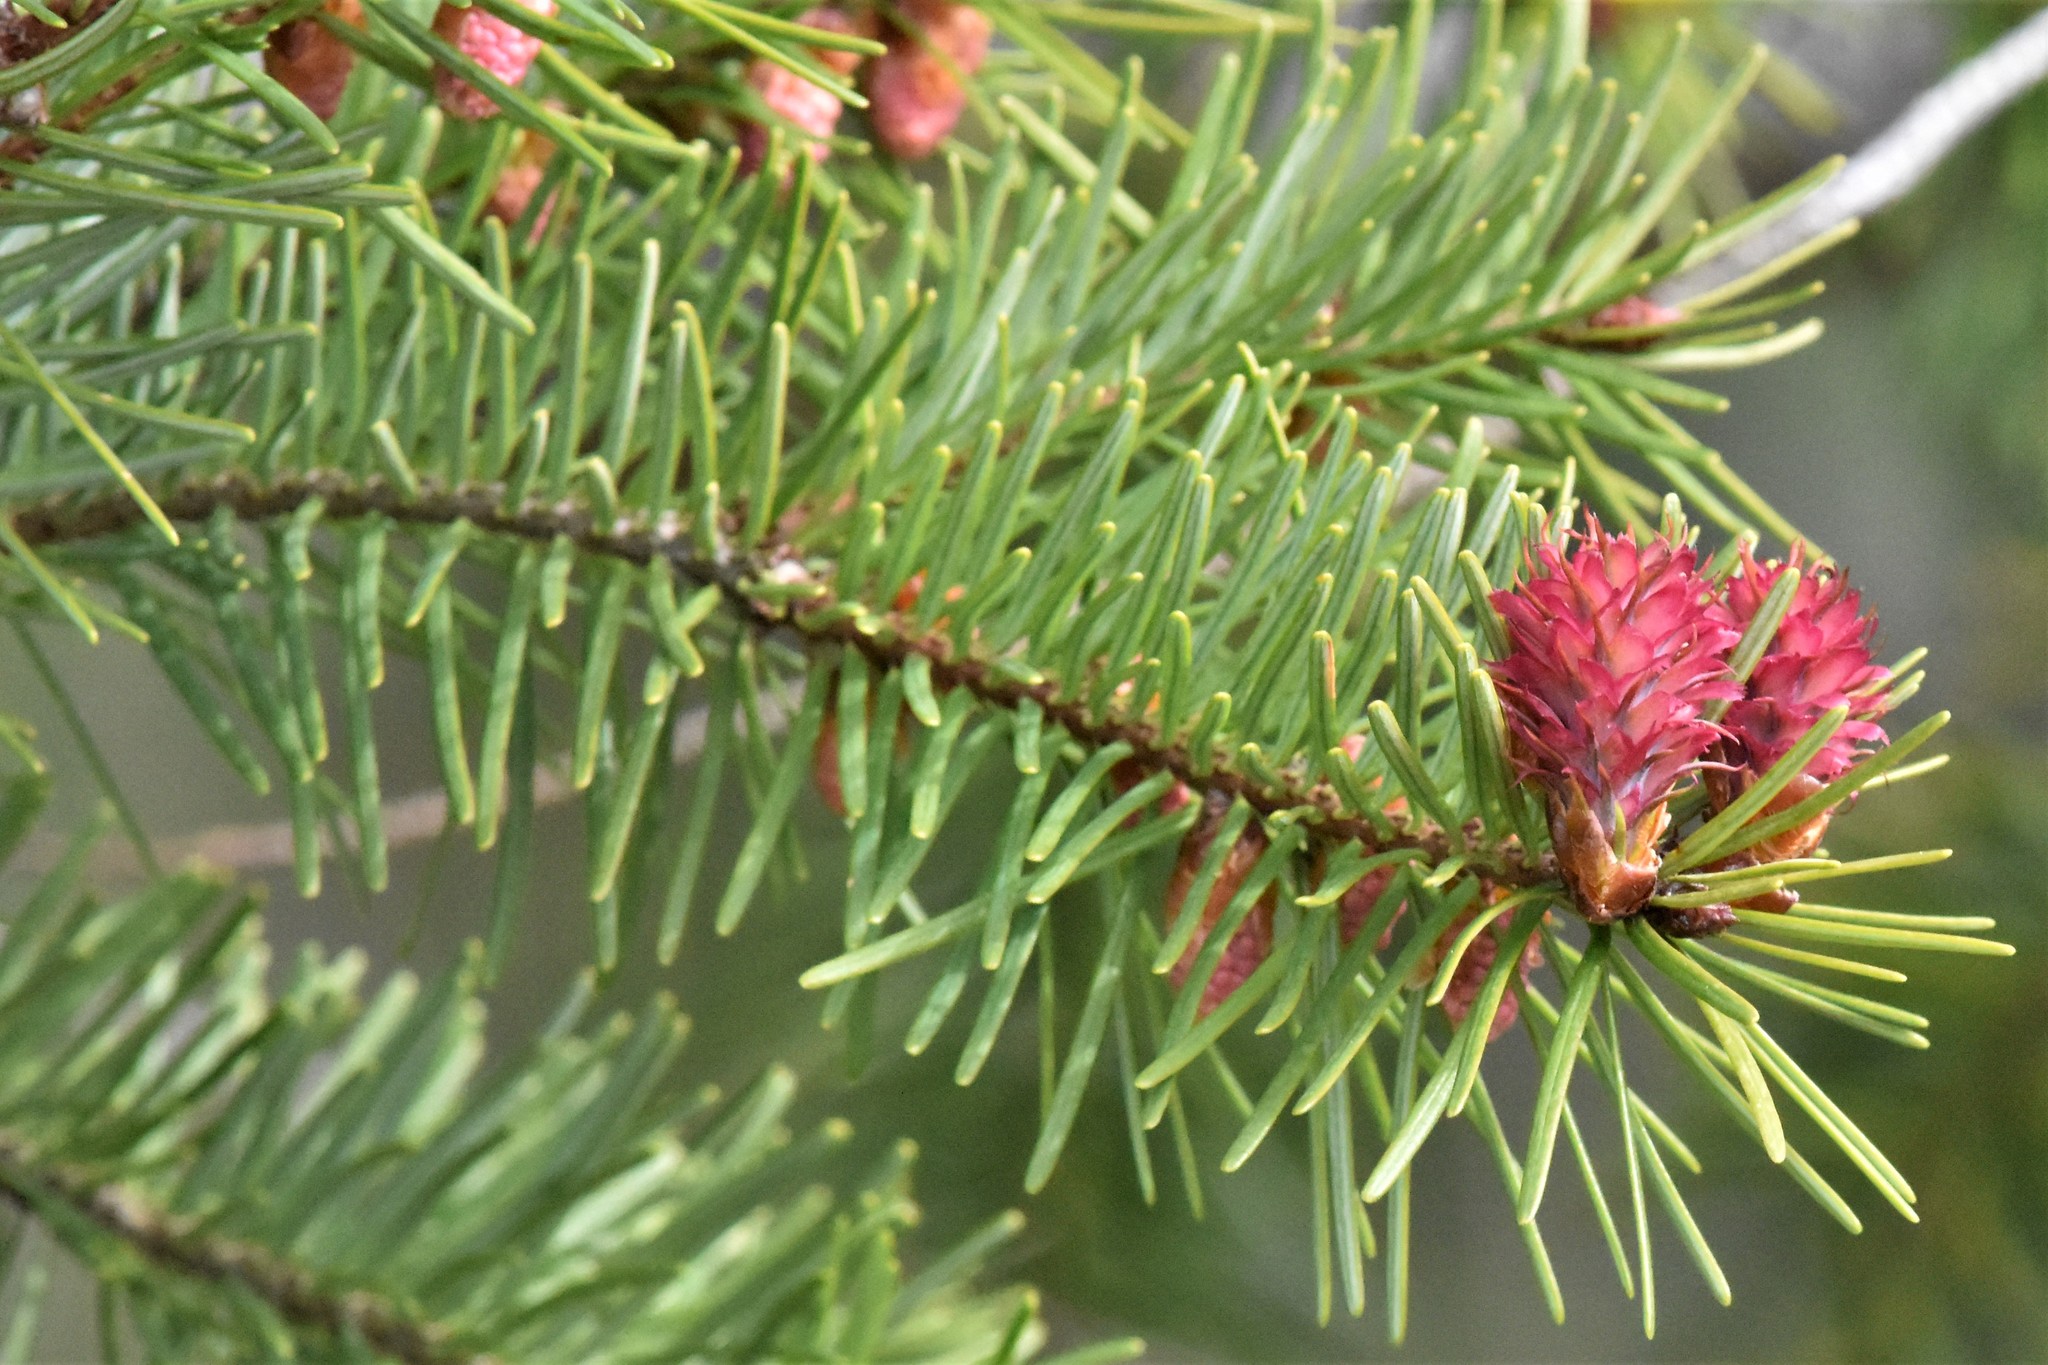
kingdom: Plantae
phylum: Tracheophyta
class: Pinopsida
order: Pinales
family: Pinaceae
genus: Pseudotsuga
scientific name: Pseudotsuga menziesii
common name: Douglas fir
